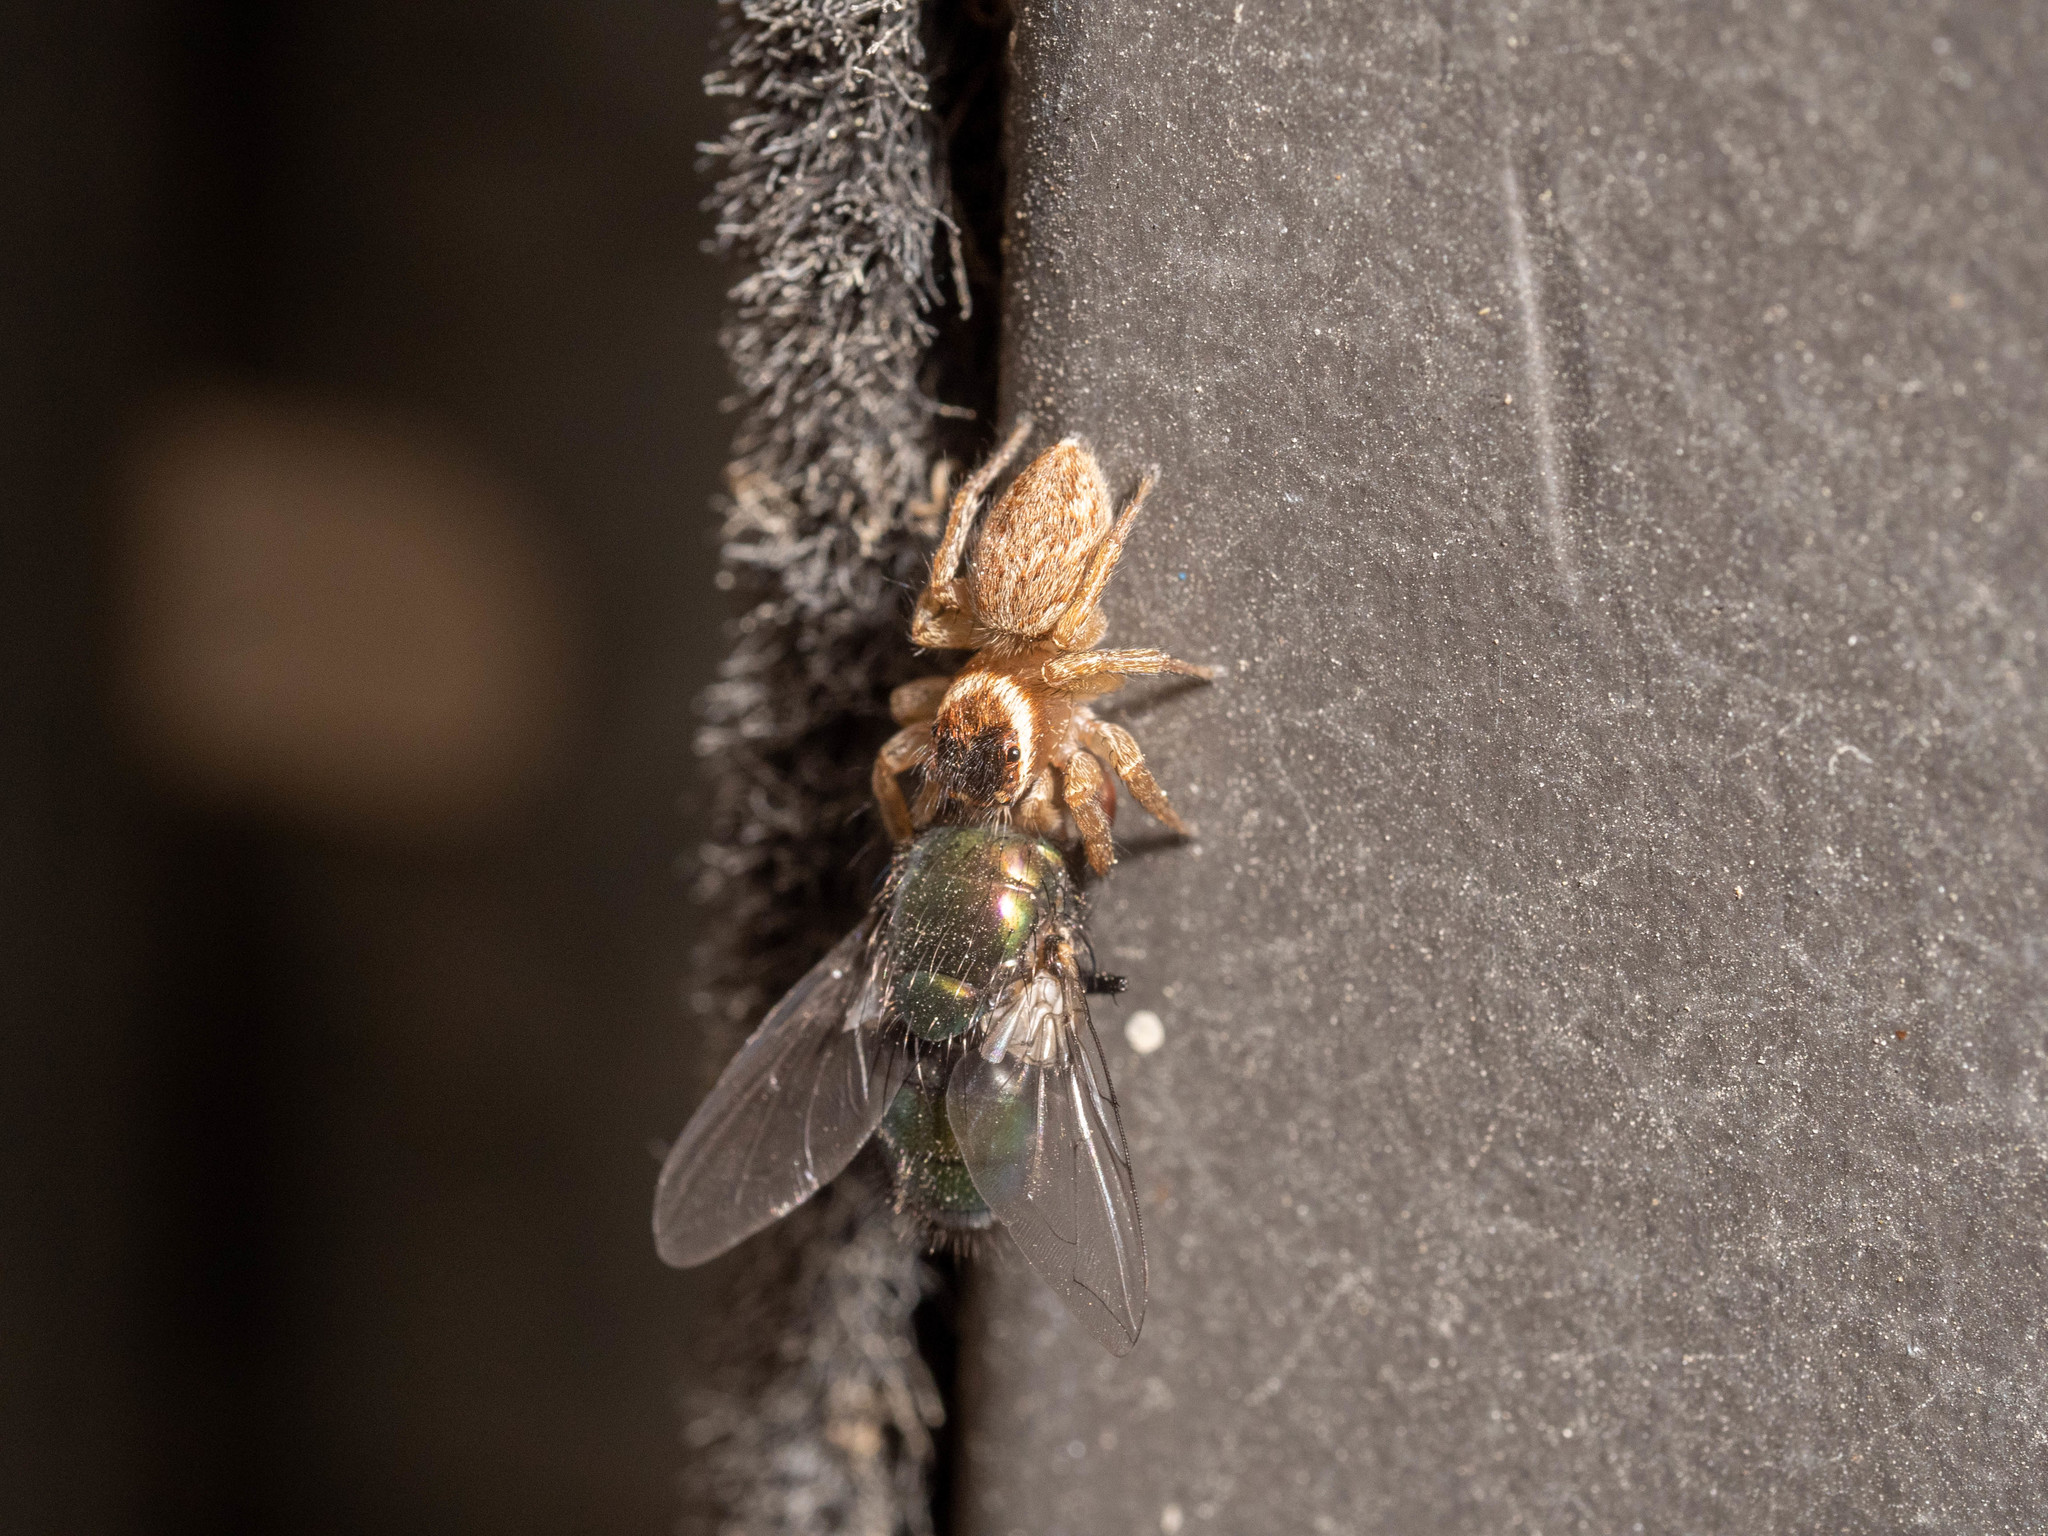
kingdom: Animalia
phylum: Arthropoda
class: Arachnida
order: Araneae
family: Salticidae
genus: Maratus
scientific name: Maratus griseus
